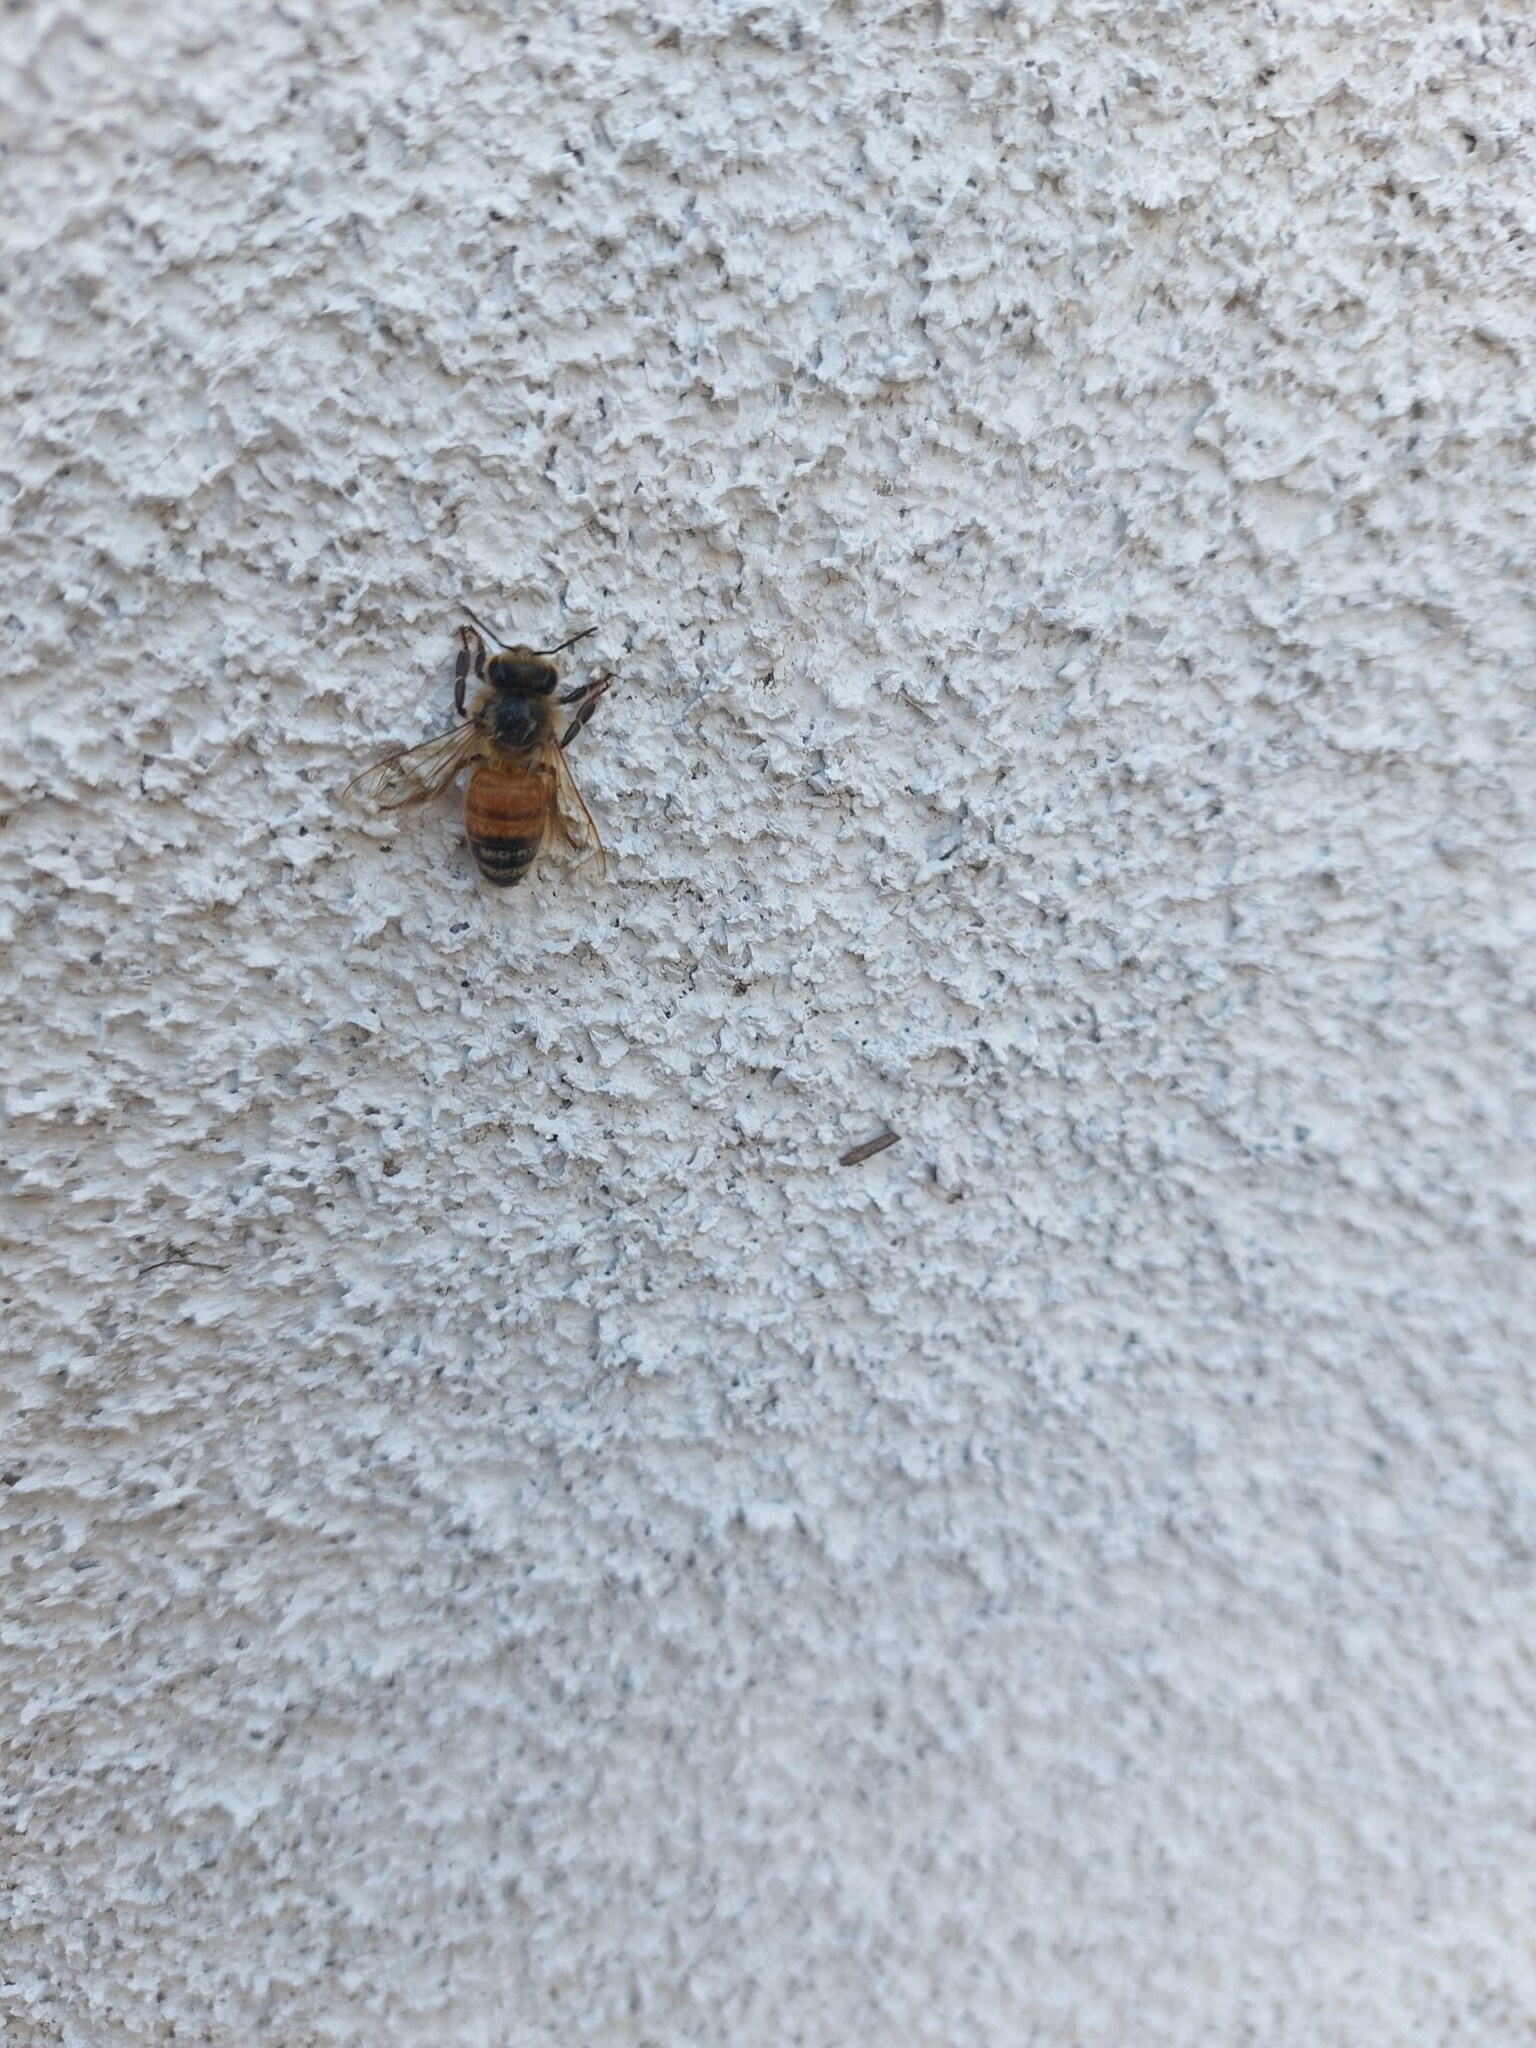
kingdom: Animalia
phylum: Arthropoda
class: Insecta
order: Hymenoptera
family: Apidae
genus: Apis
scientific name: Apis mellifera
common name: Honey bee
